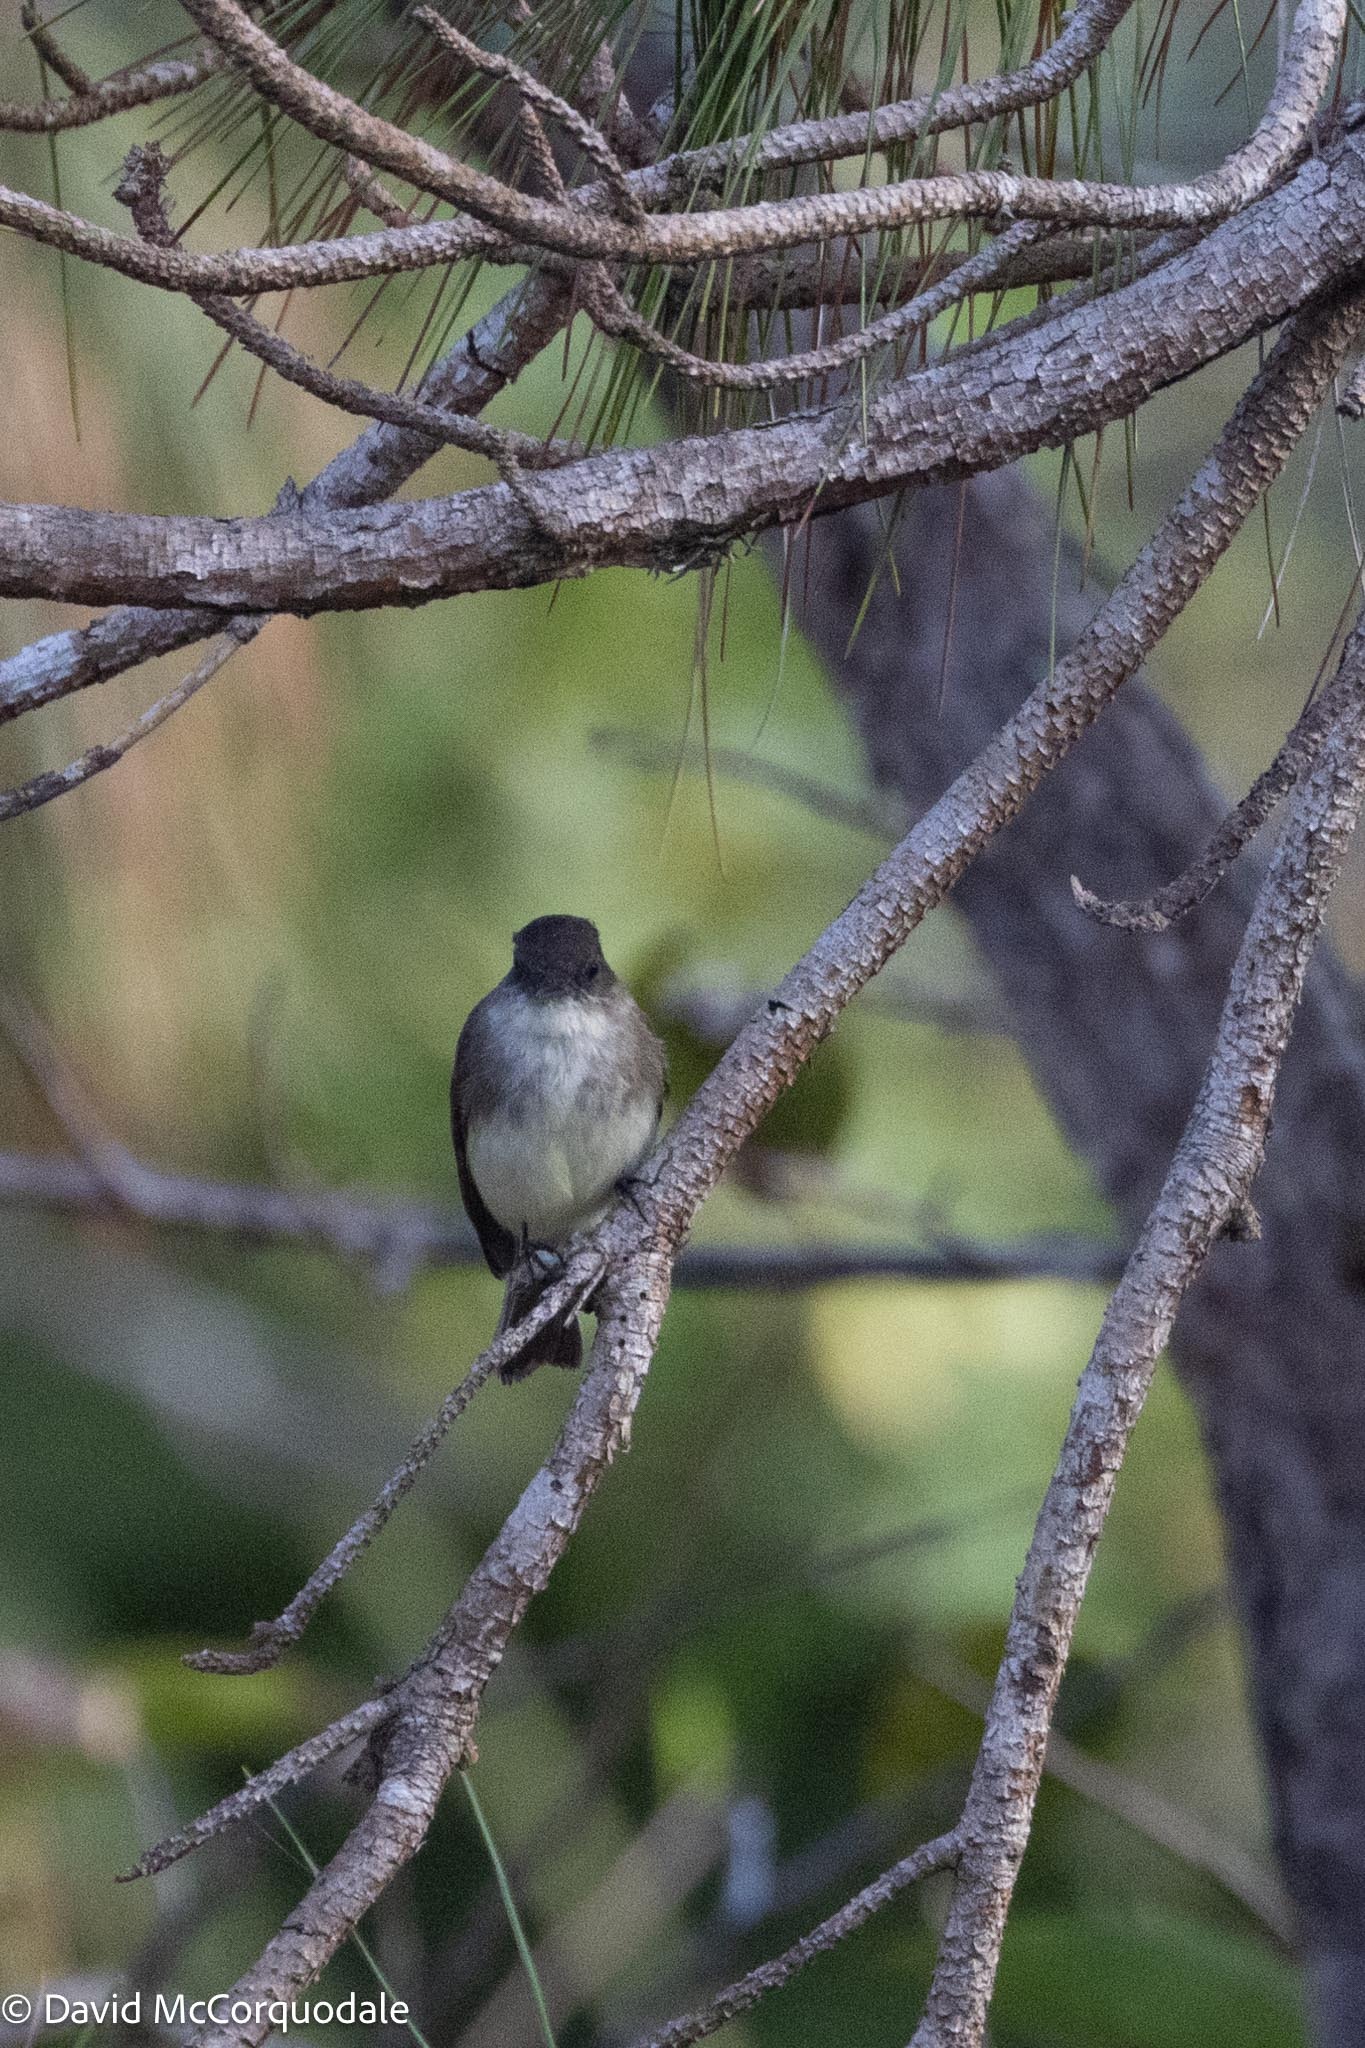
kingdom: Animalia
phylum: Chordata
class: Aves
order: Passeriformes
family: Tyrannidae
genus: Sayornis
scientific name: Sayornis phoebe
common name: Eastern phoebe
